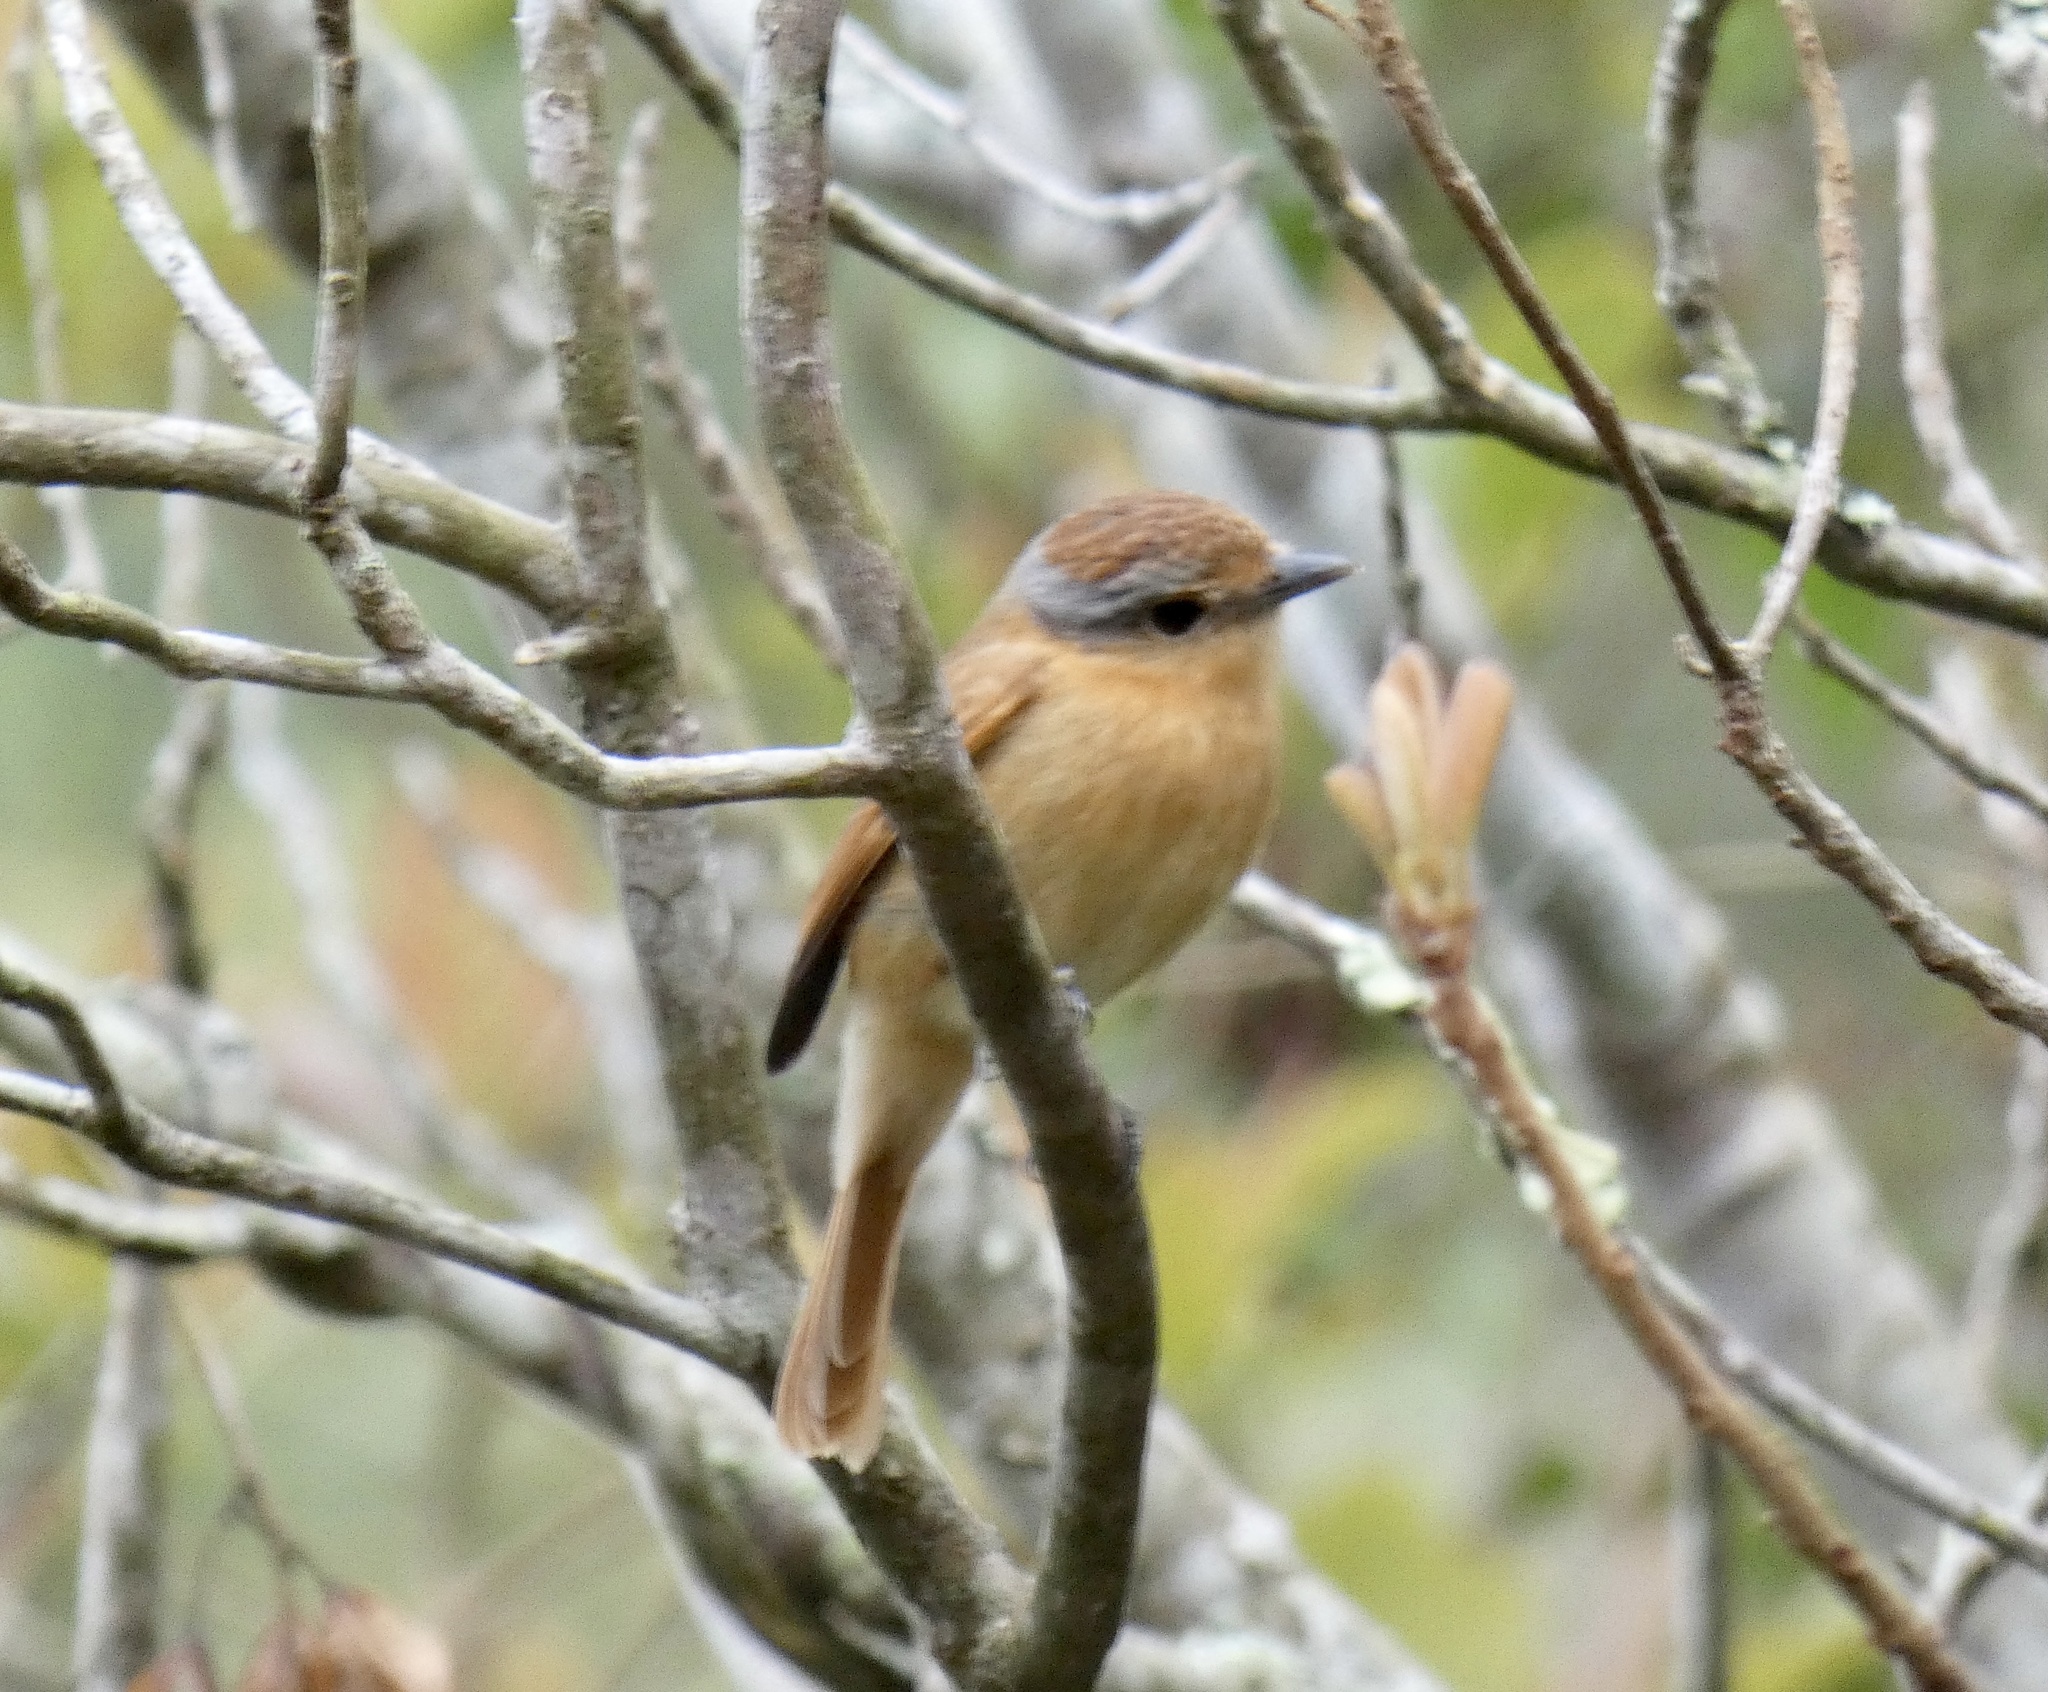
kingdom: Animalia
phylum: Chordata
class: Aves
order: Passeriformes
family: Cotingidae
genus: Pachyramphus
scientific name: Pachyramphus castaneus
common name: Chestnut-crowned becard
